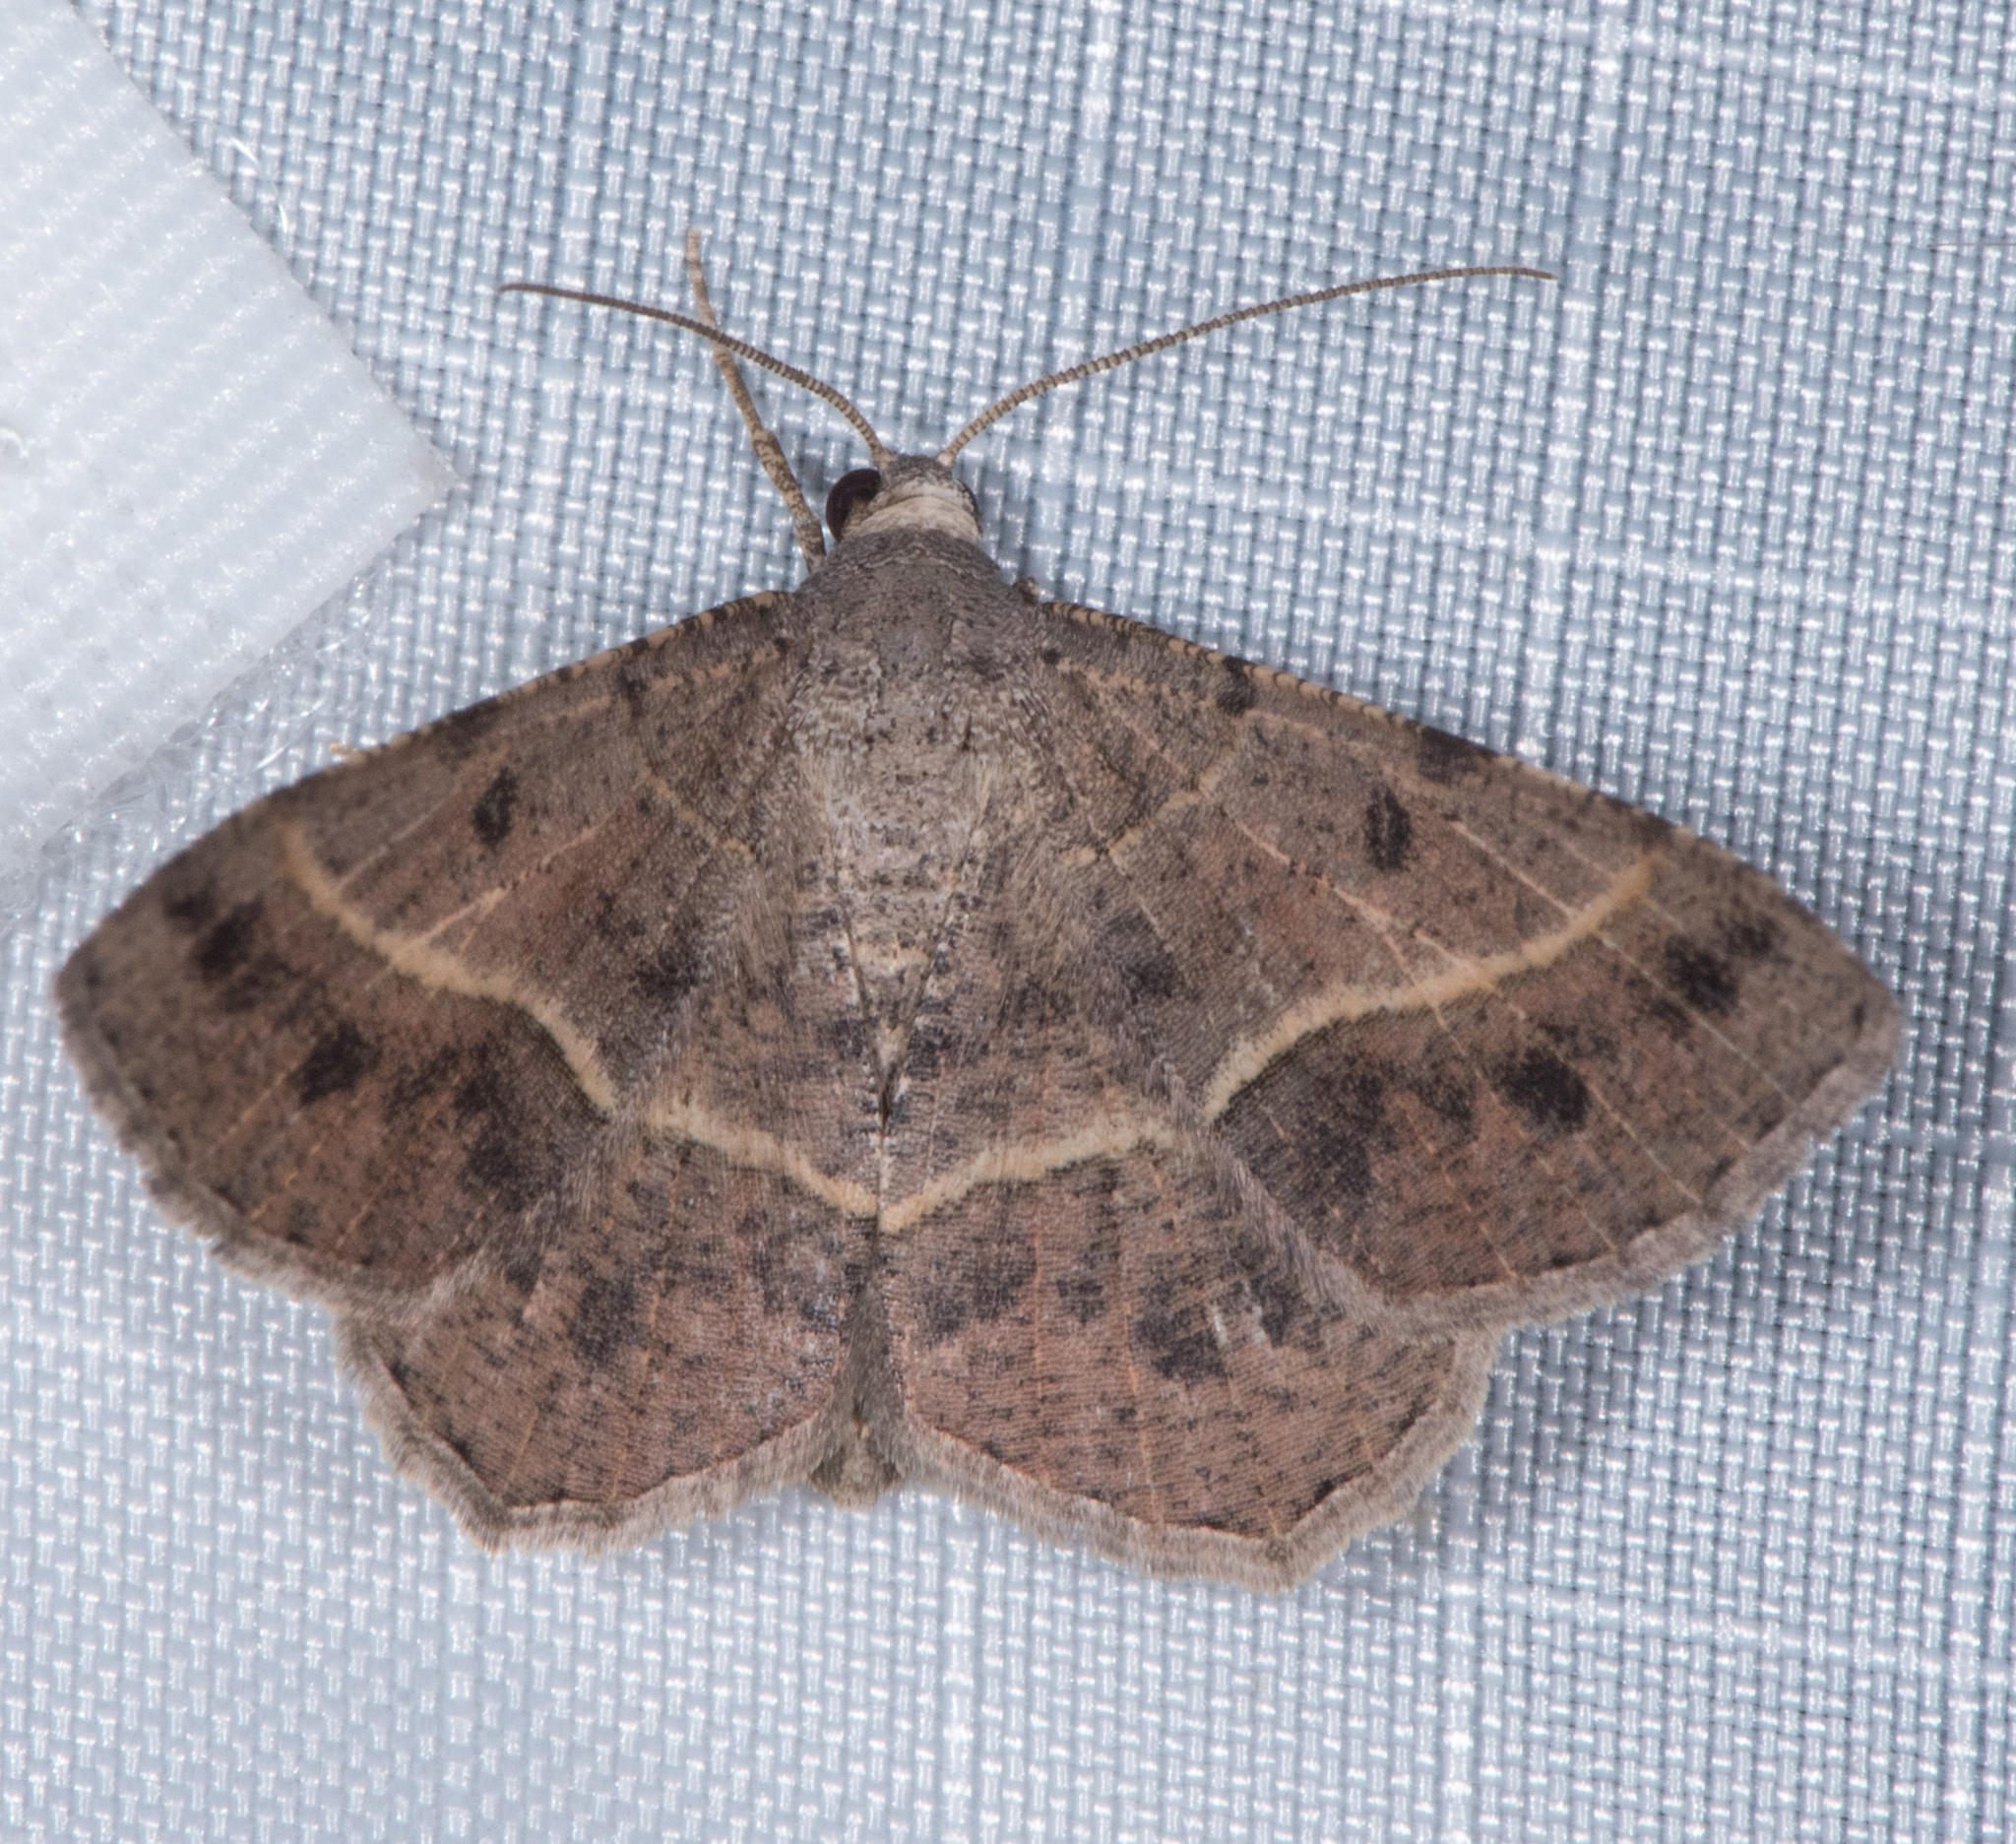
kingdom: Animalia
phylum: Arthropoda
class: Insecta
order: Lepidoptera
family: Geometridae
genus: Digrammia
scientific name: Digrammia irrorata
